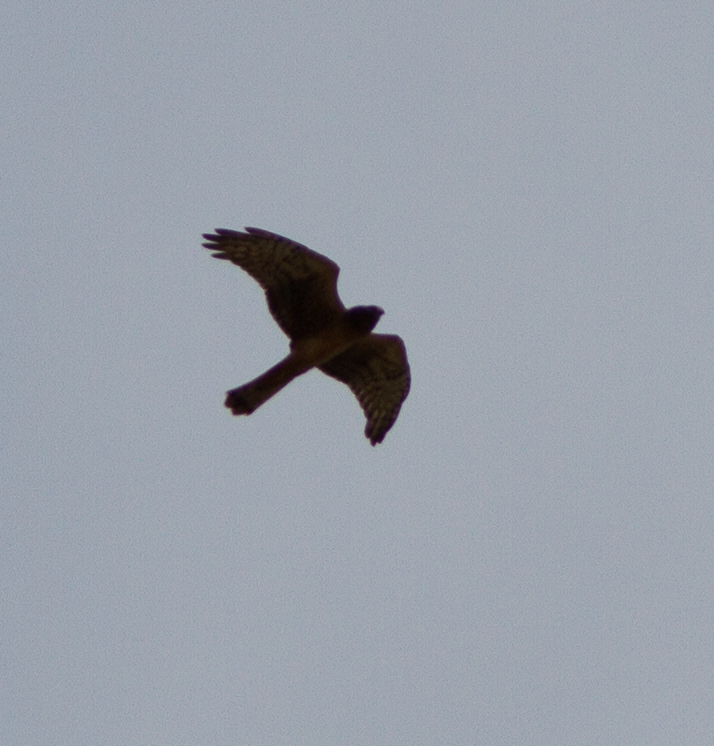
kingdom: Animalia
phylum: Chordata
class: Aves
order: Accipitriformes
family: Accipitridae
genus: Circus
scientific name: Circus cyaneus
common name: Hen harrier
